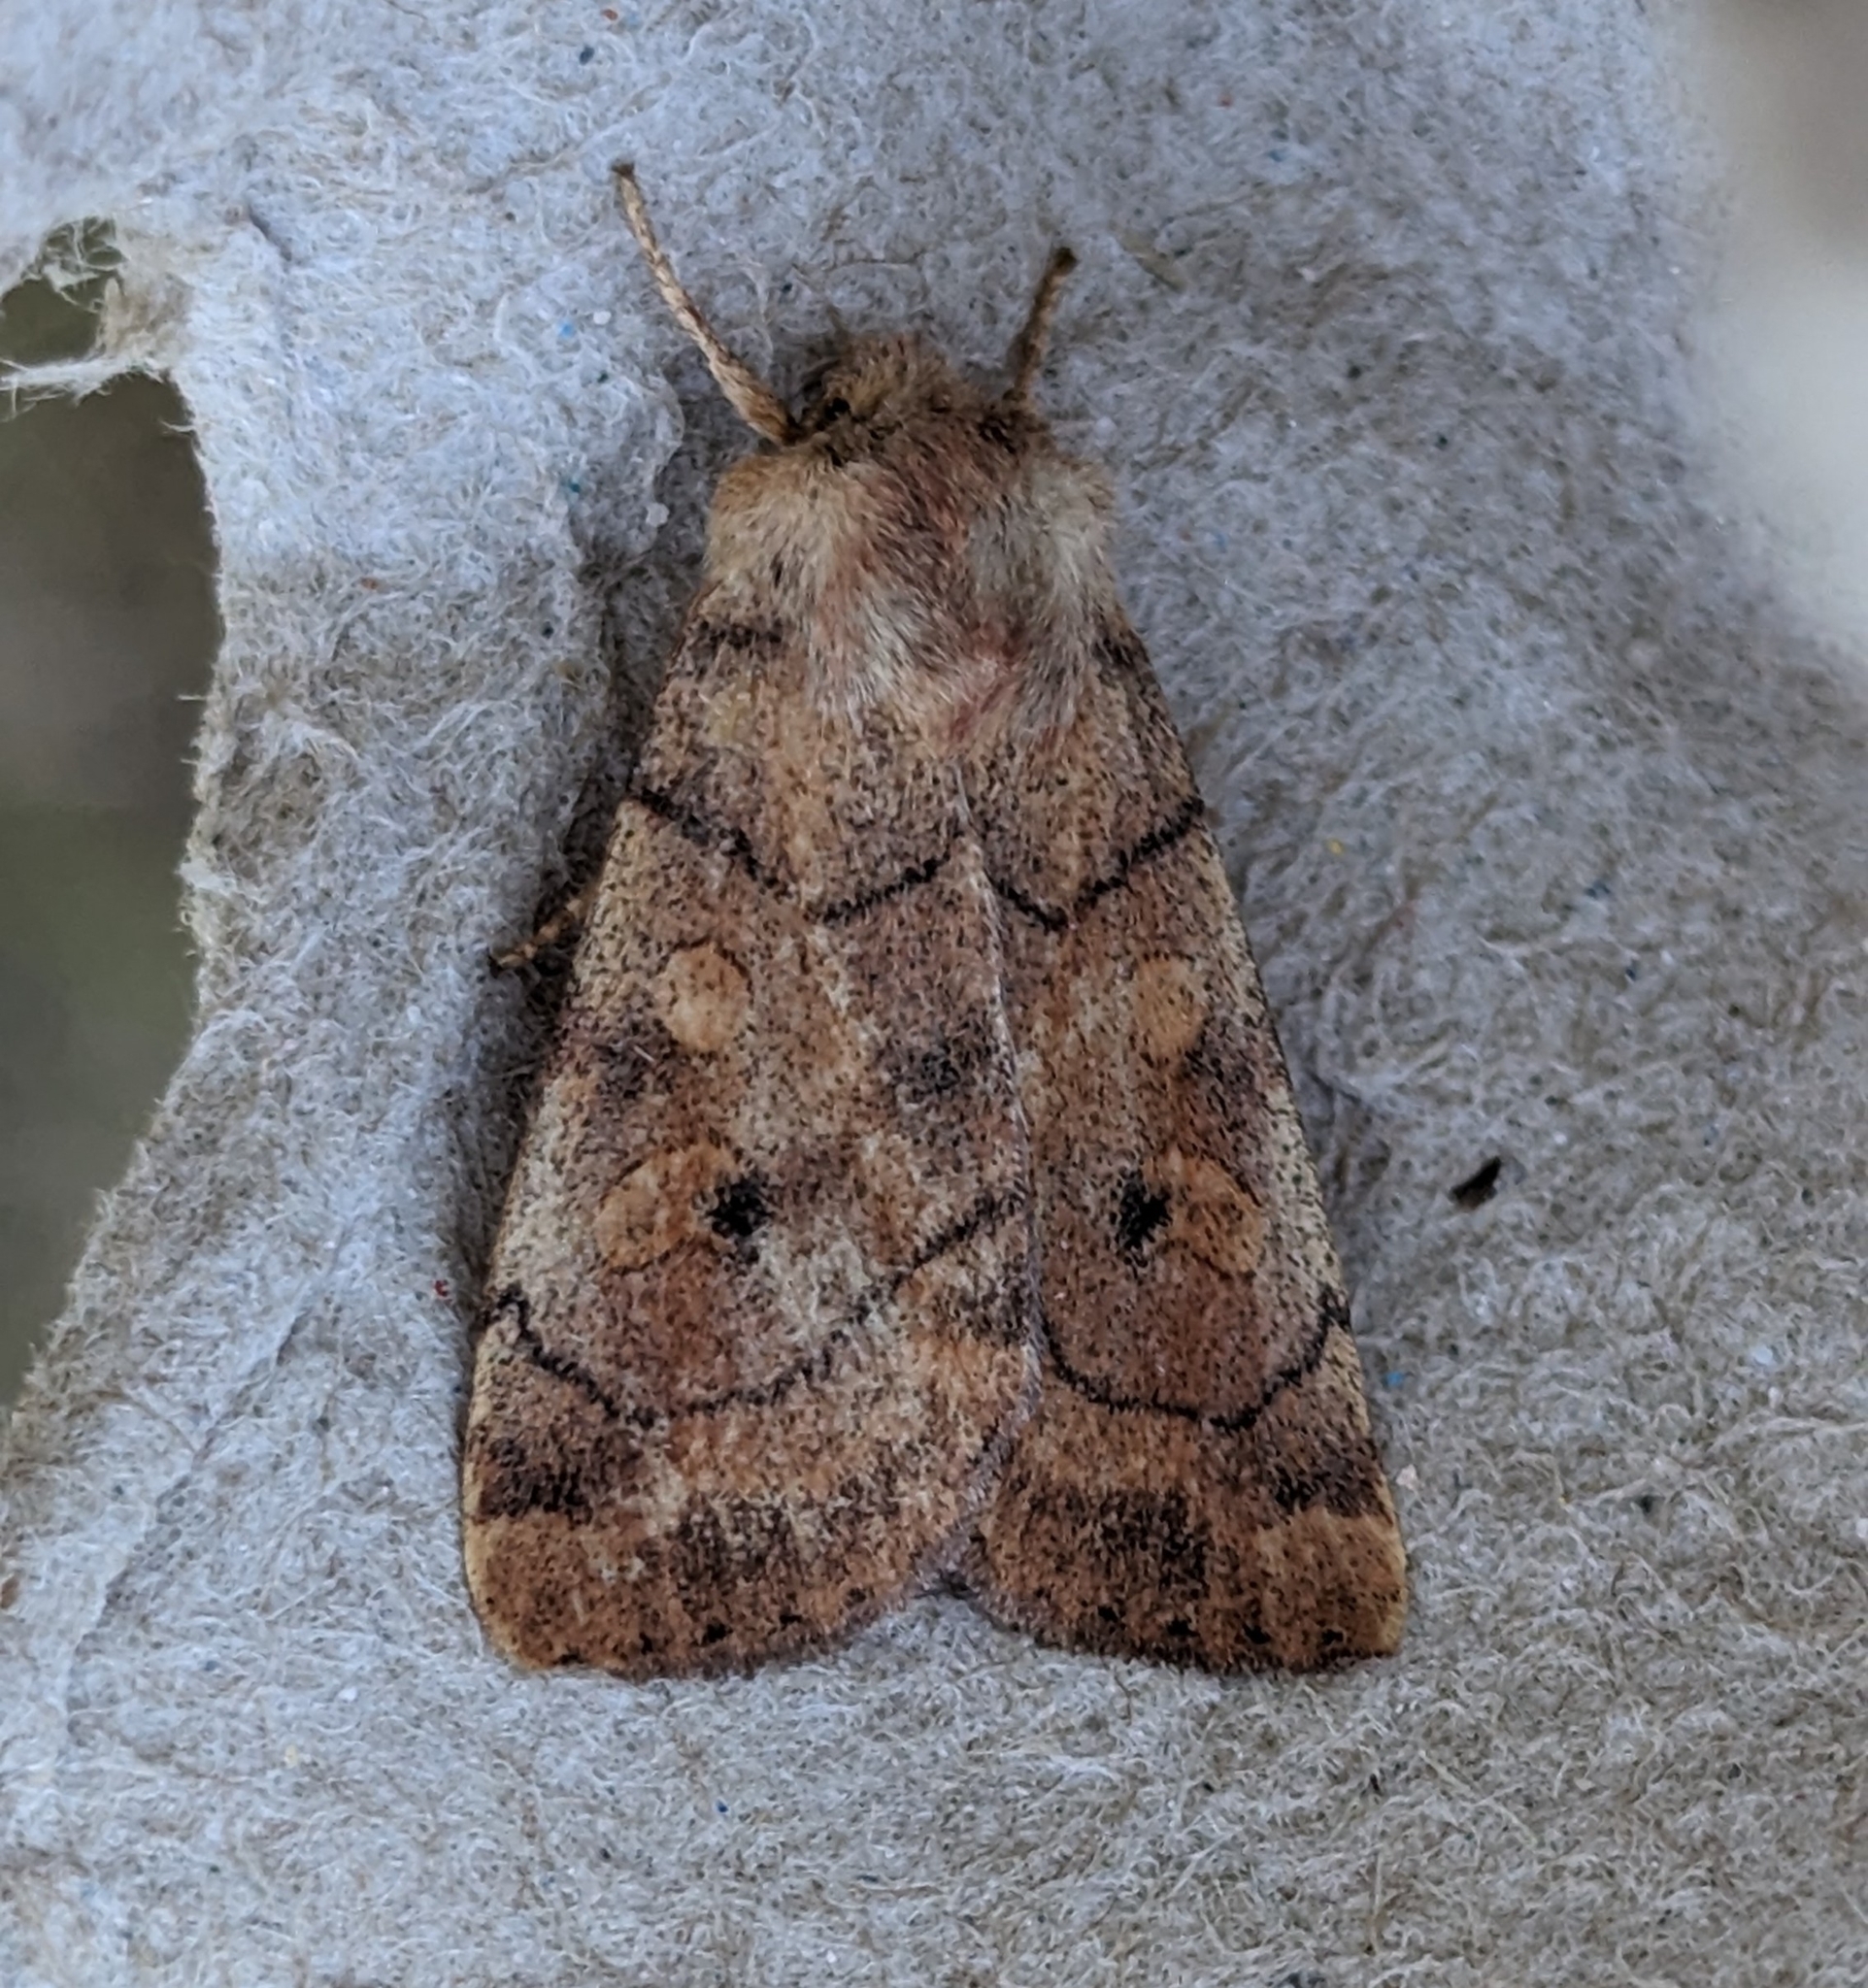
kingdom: Animalia
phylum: Arthropoda
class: Insecta
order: Lepidoptera
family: Noctuidae
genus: Enargia
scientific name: Enargia infumata
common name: Smoked sallow
